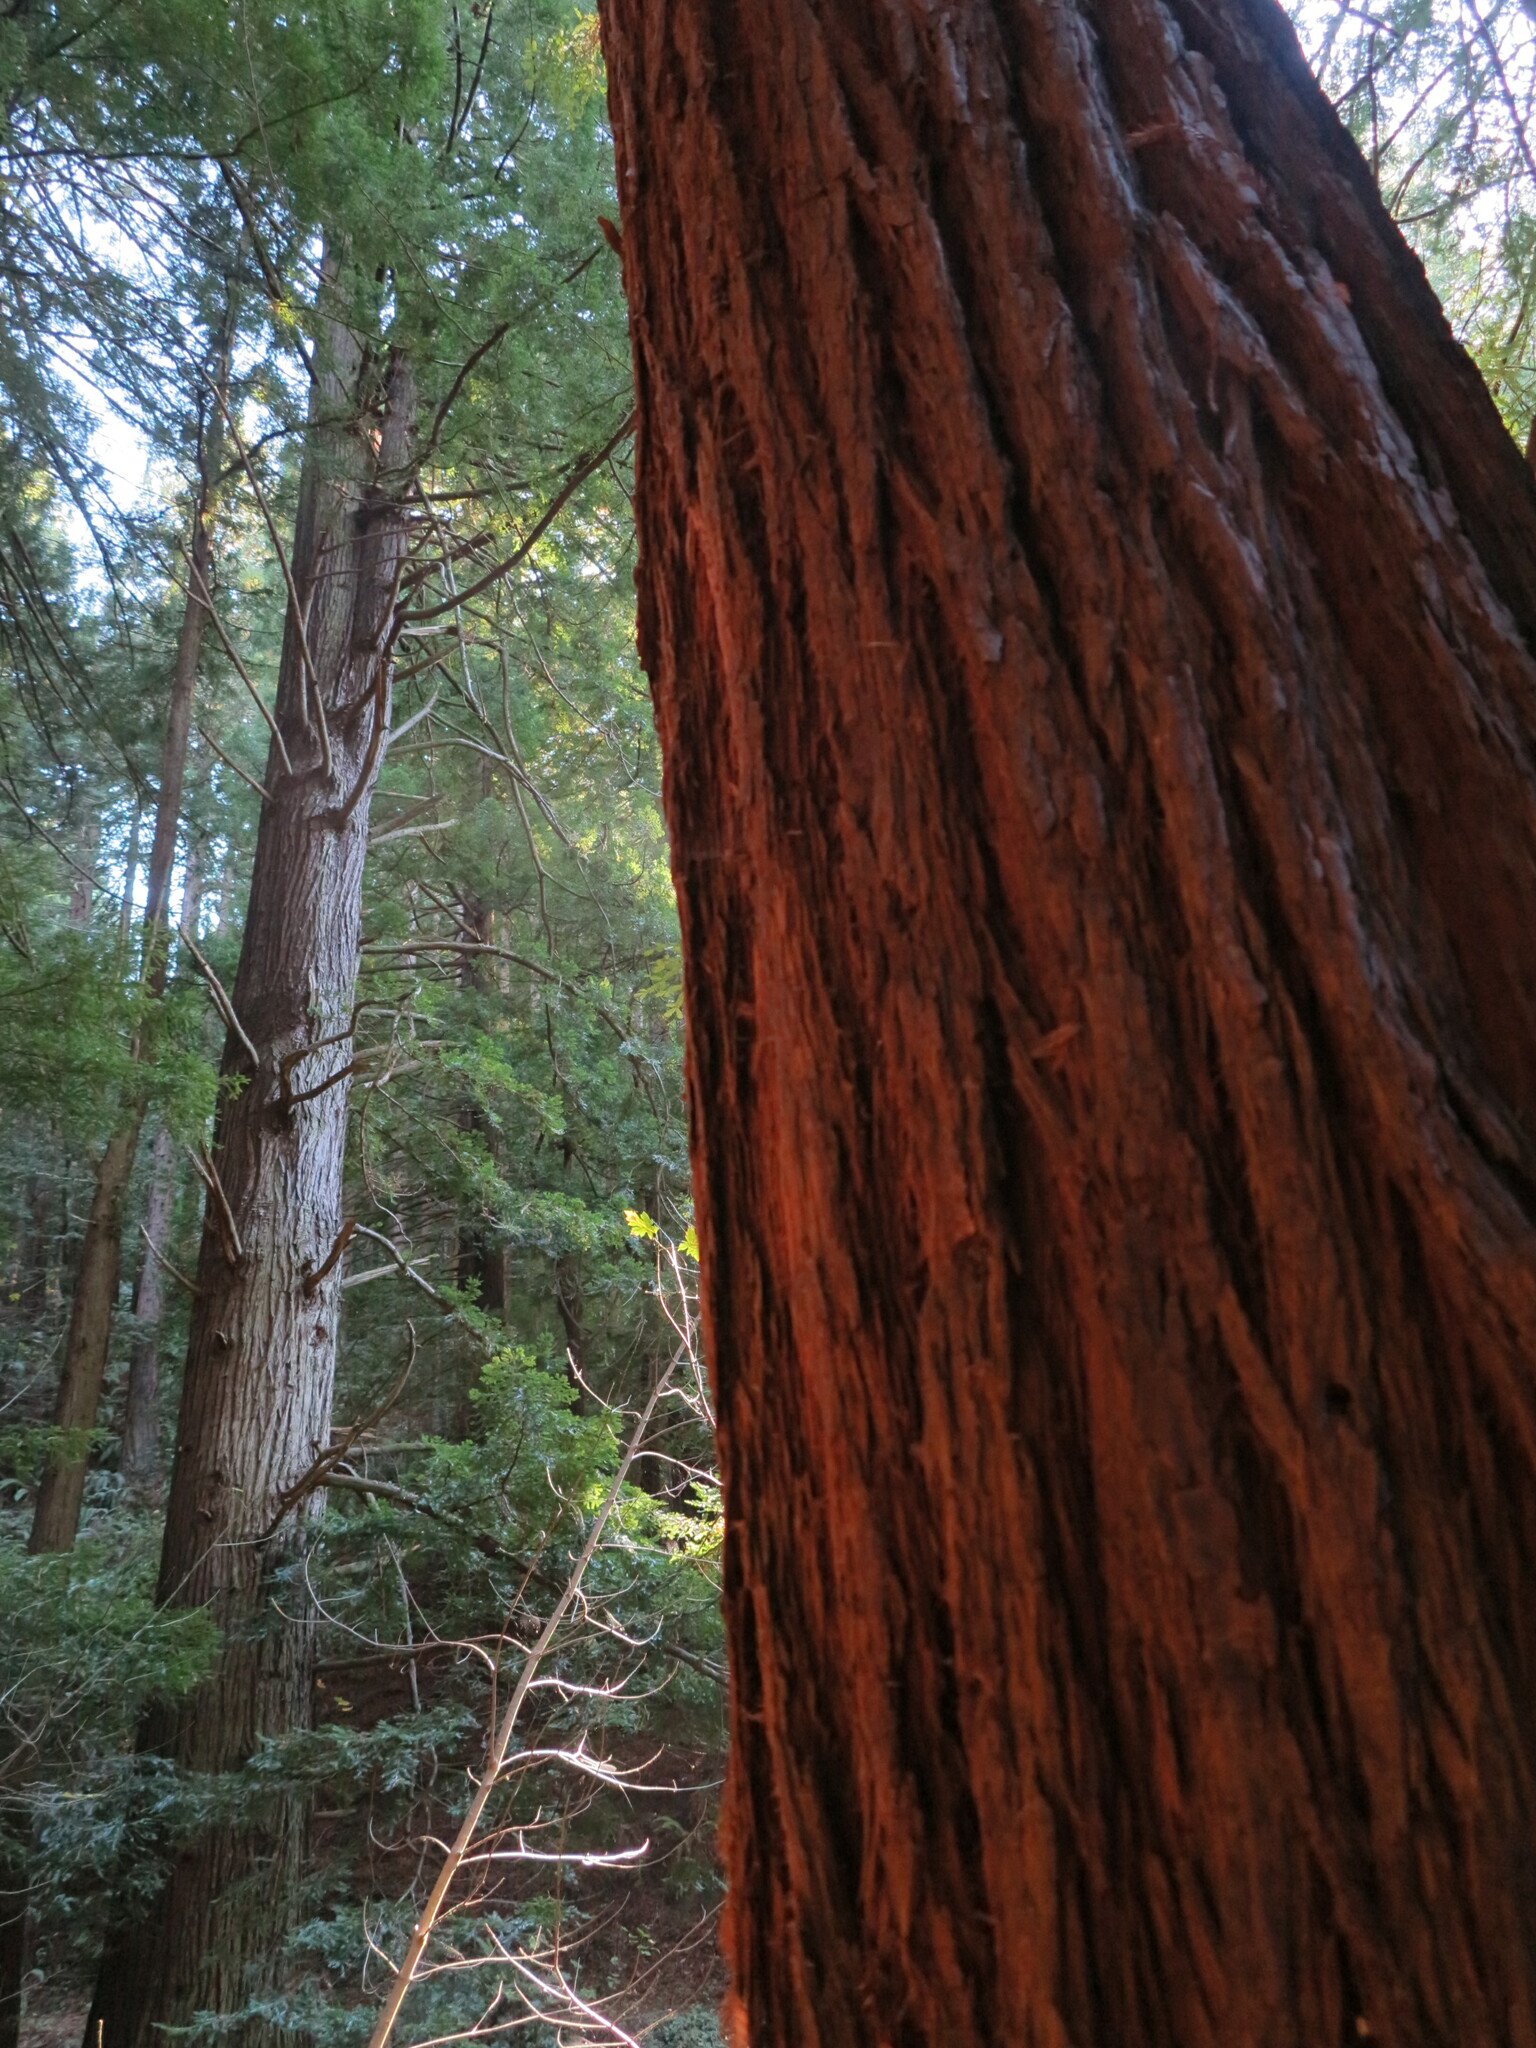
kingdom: Plantae
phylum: Tracheophyta
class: Pinopsida
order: Pinales
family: Cupressaceae
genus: Sequoia
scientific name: Sequoia sempervirens
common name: Coast redwood
